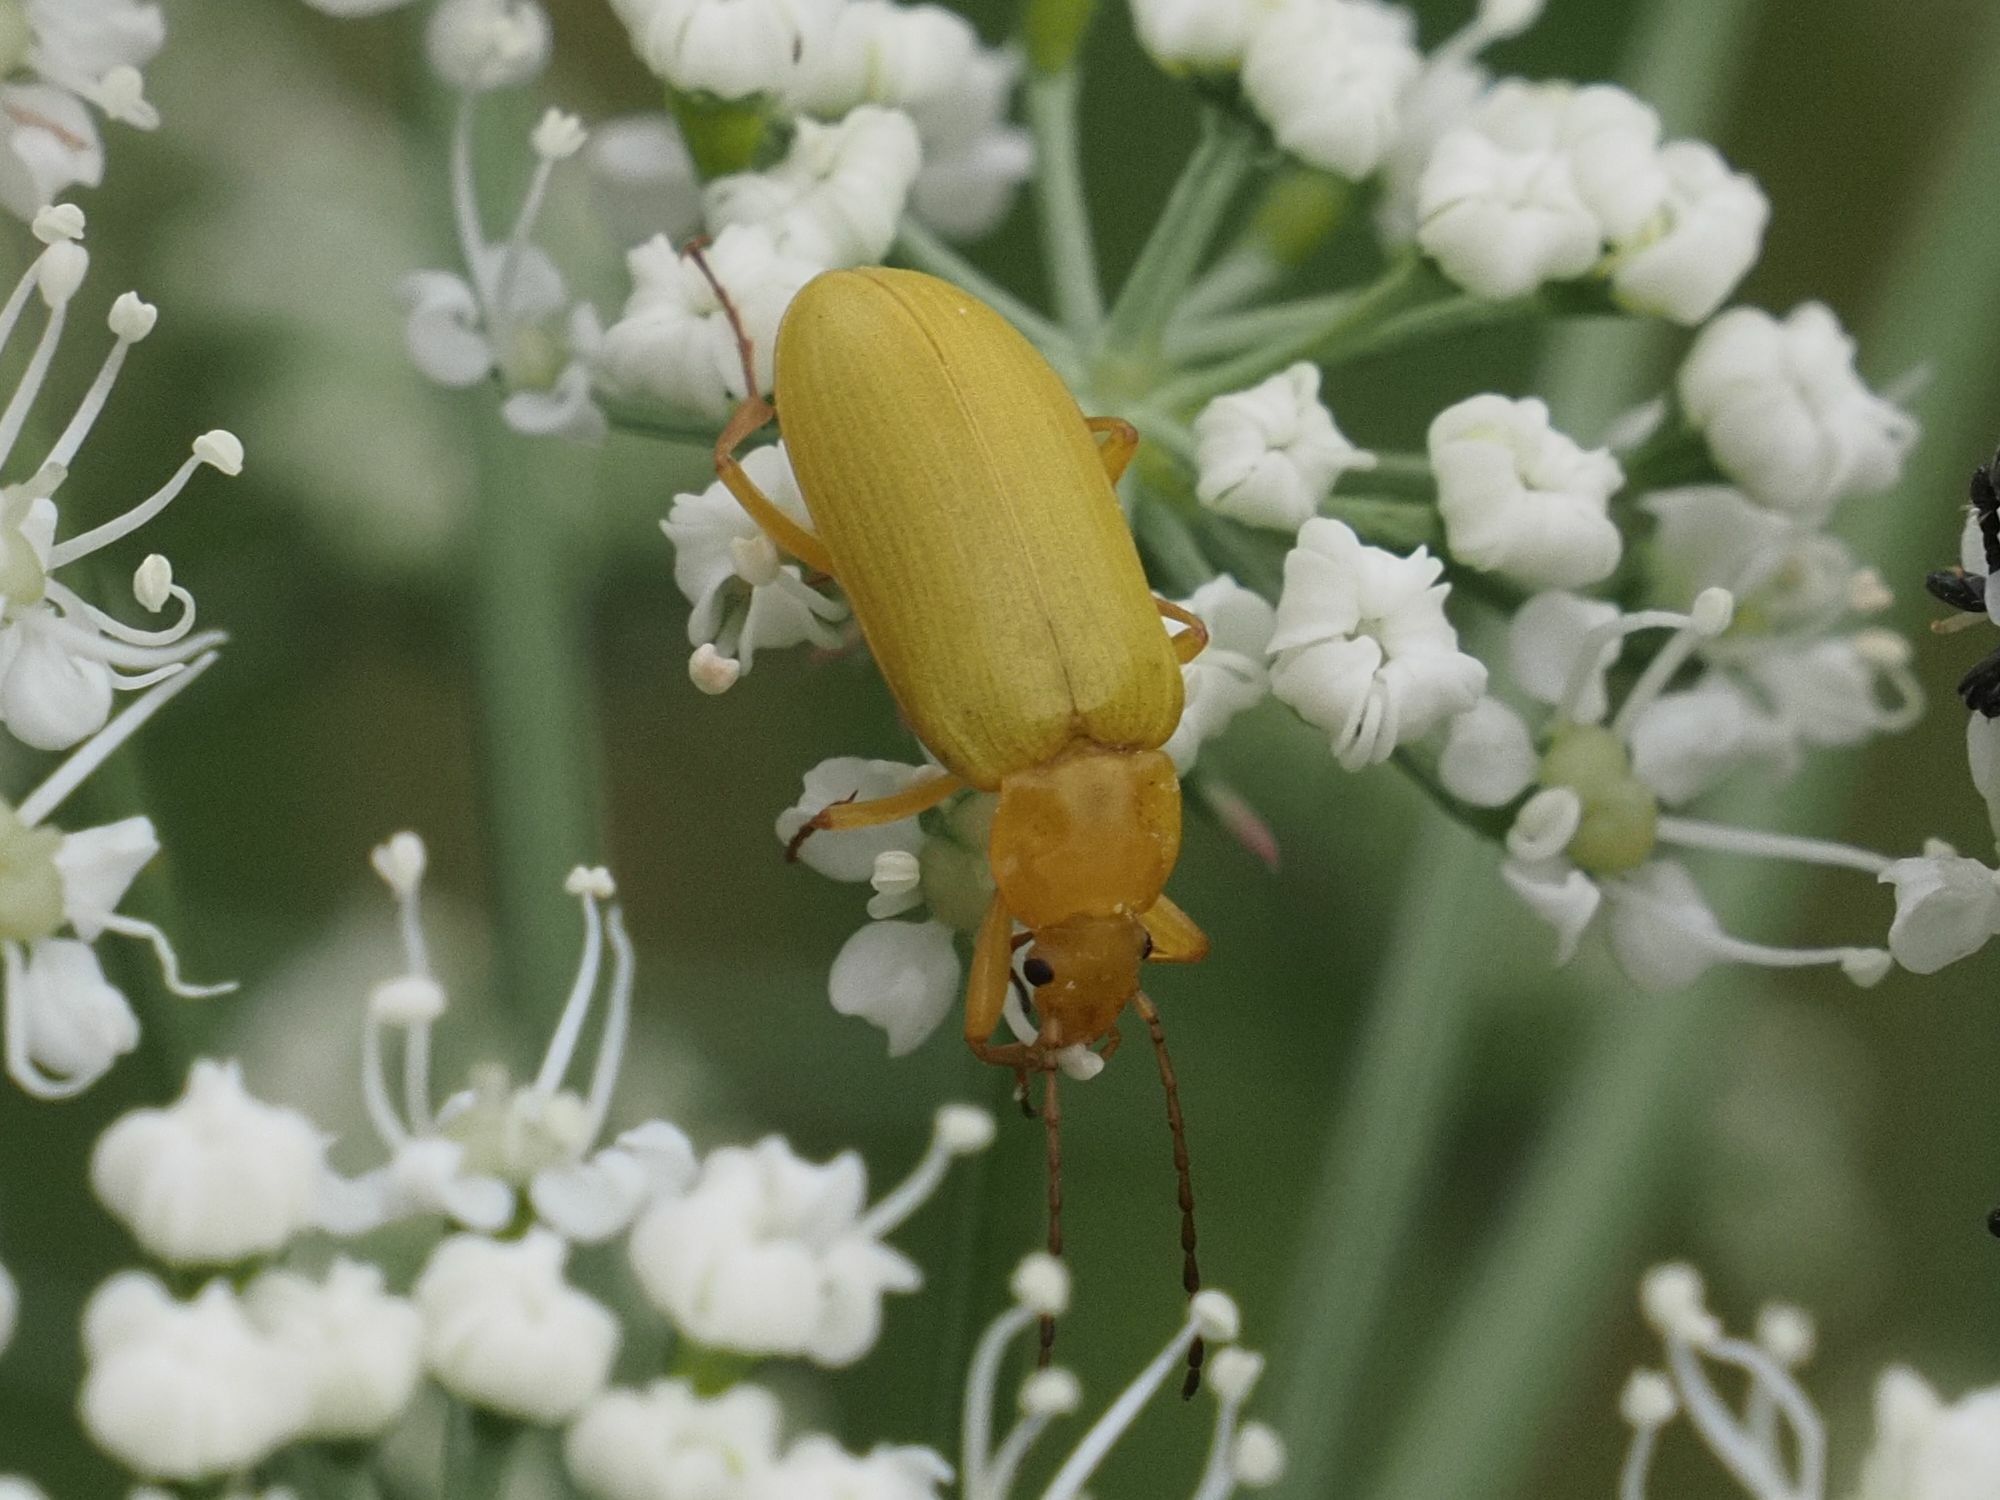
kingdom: Animalia
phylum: Arthropoda
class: Insecta
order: Coleoptera
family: Tenebrionidae
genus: Cteniopus
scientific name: Cteniopus sulphureus
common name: Sulphur beetle
